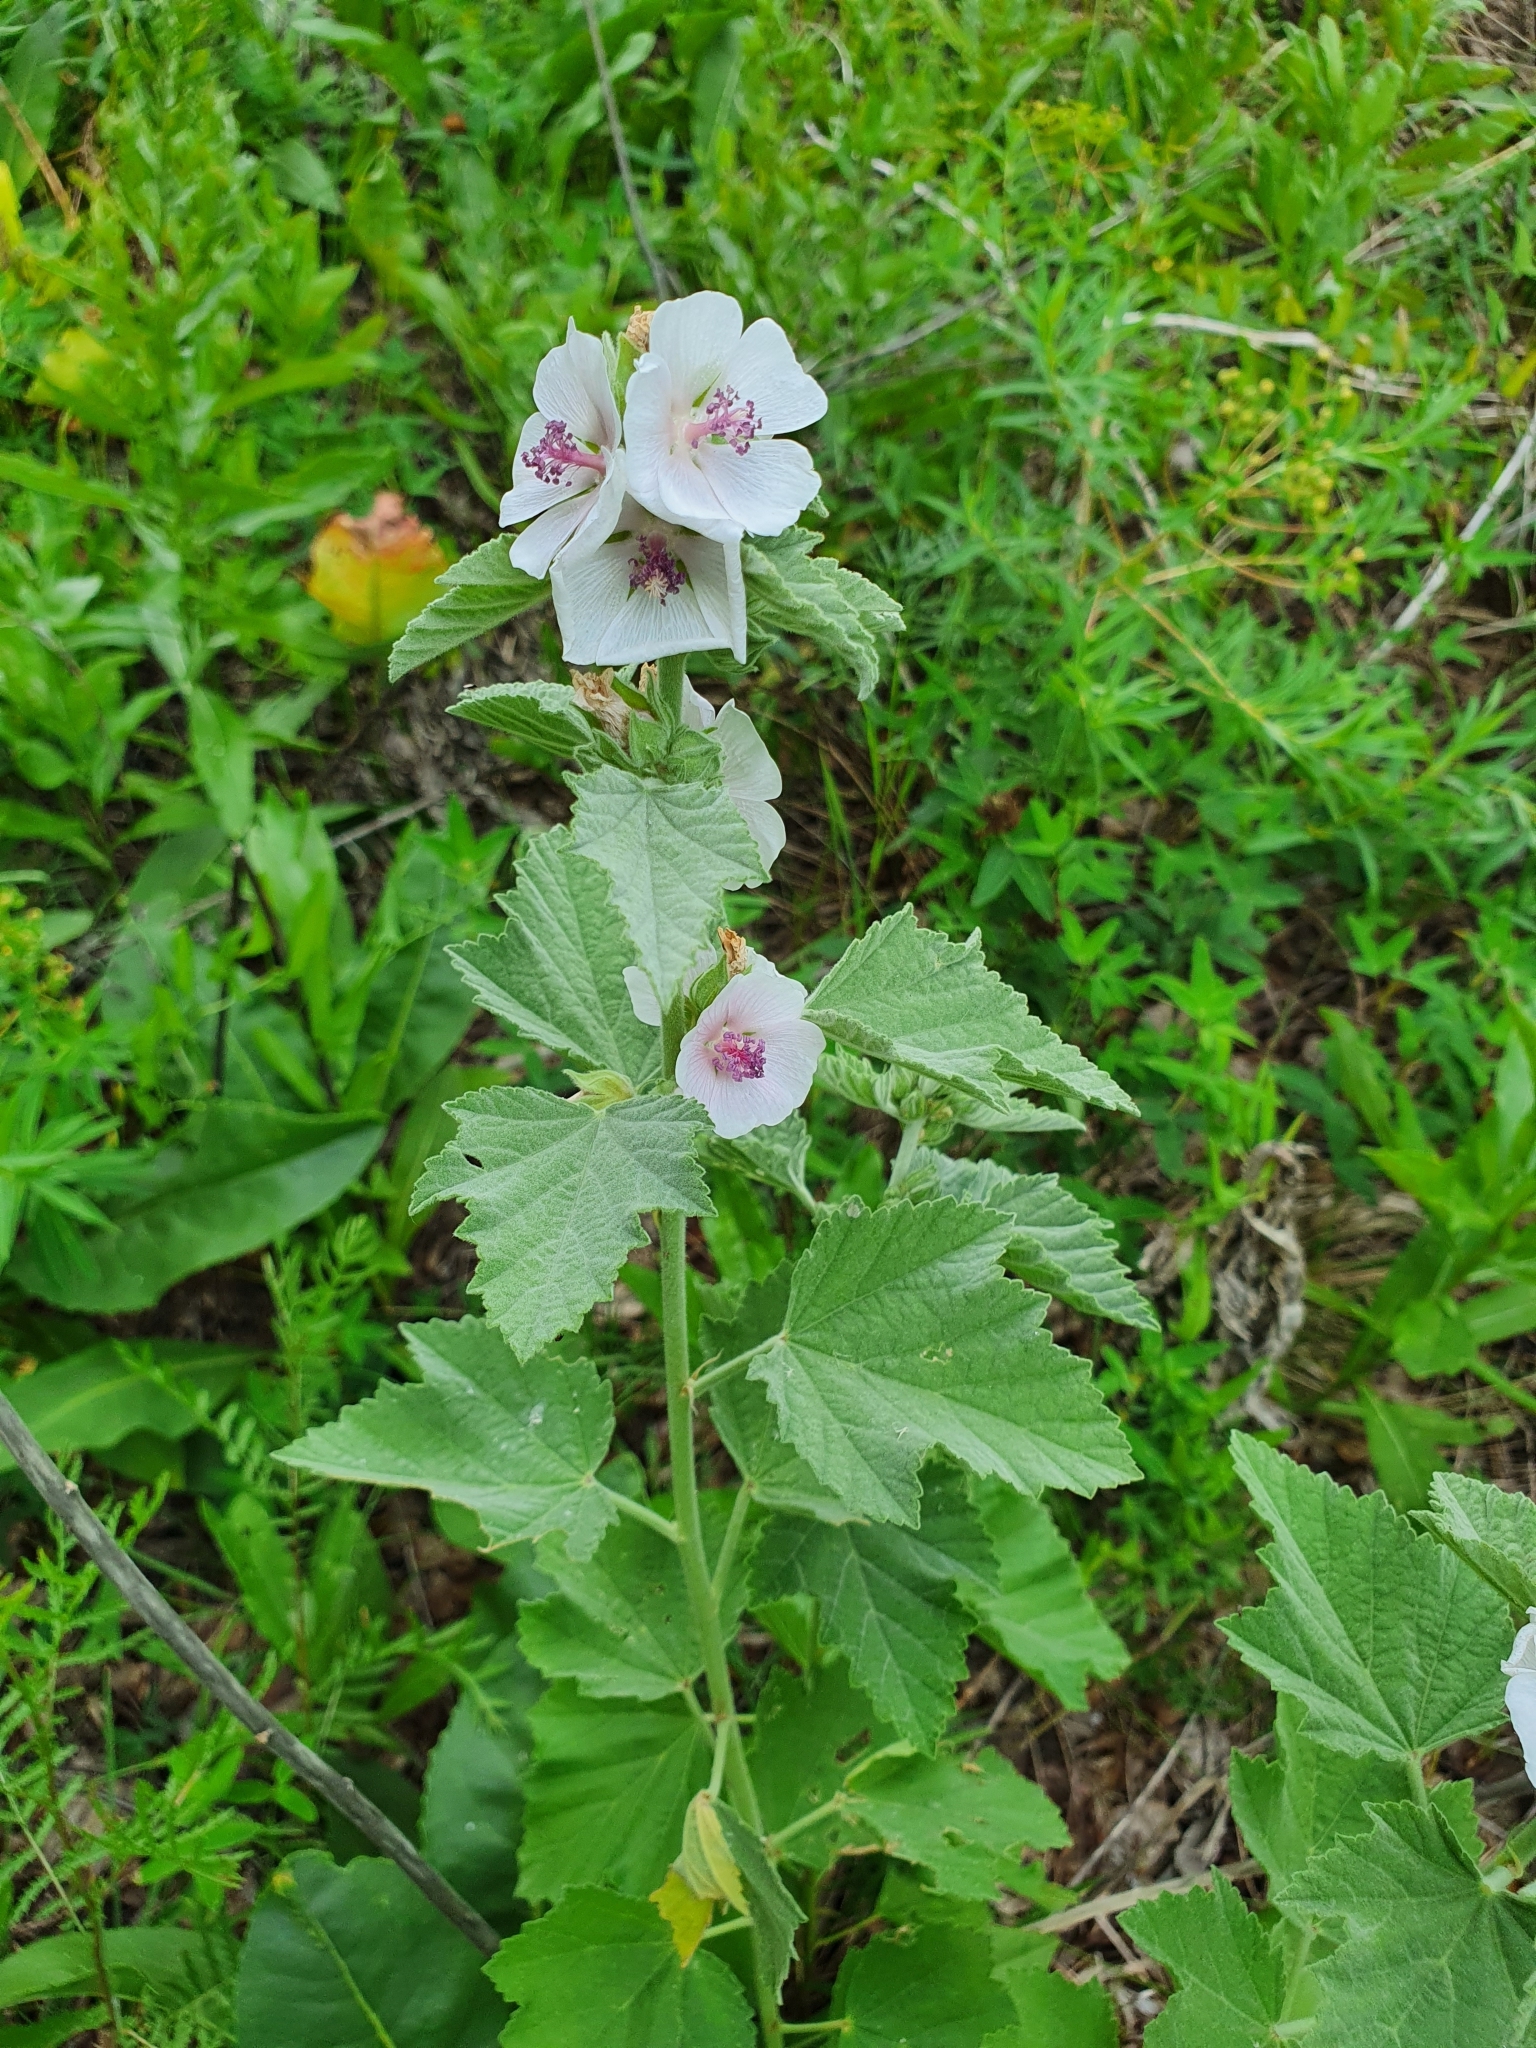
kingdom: Plantae
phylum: Tracheophyta
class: Magnoliopsida
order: Malvales
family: Malvaceae
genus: Althaea
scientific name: Althaea officinalis
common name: Marsh-mallow
